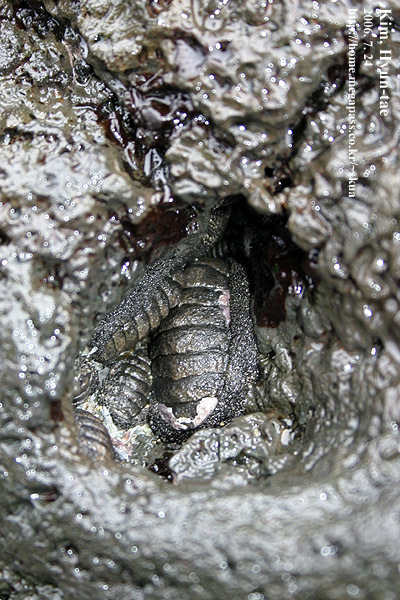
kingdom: Animalia
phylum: Mollusca
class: Polyplacophora
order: Chitonida
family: Chitonidae
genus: Liolophura
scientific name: Liolophura japonica
